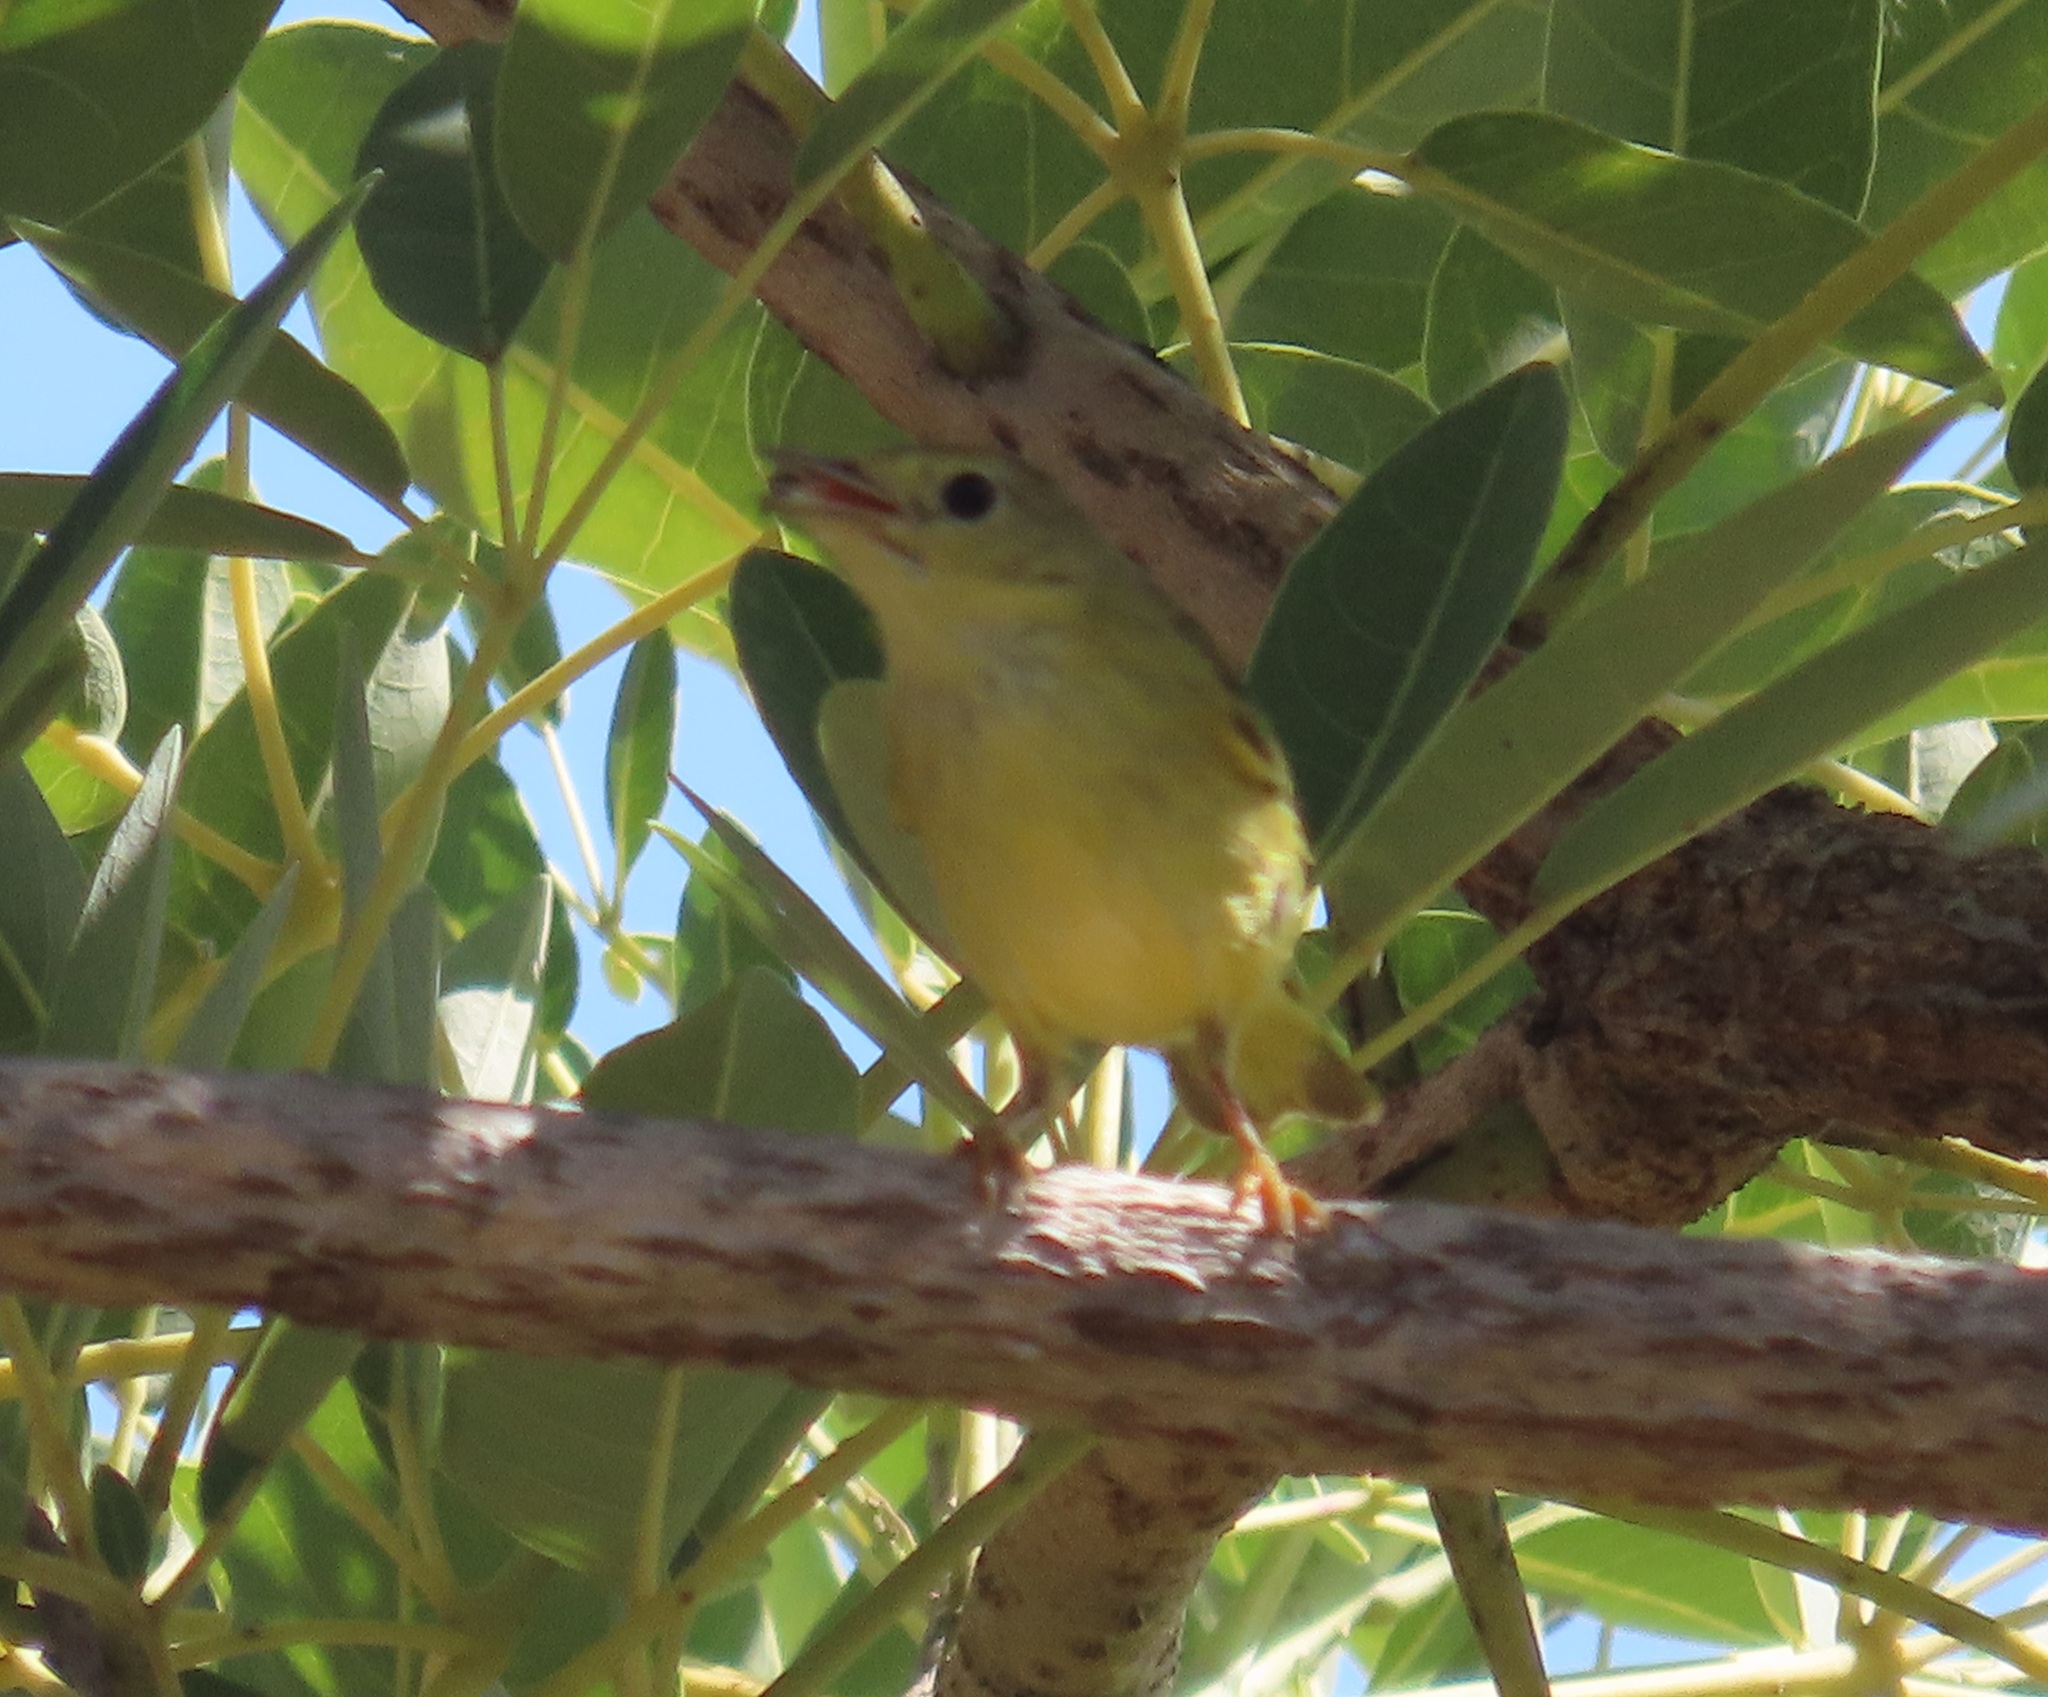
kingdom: Animalia
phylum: Chordata
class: Aves
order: Passeriformes
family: Parulidae
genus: Setophaga
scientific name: Setophaga petechia
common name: Yellow warbler
